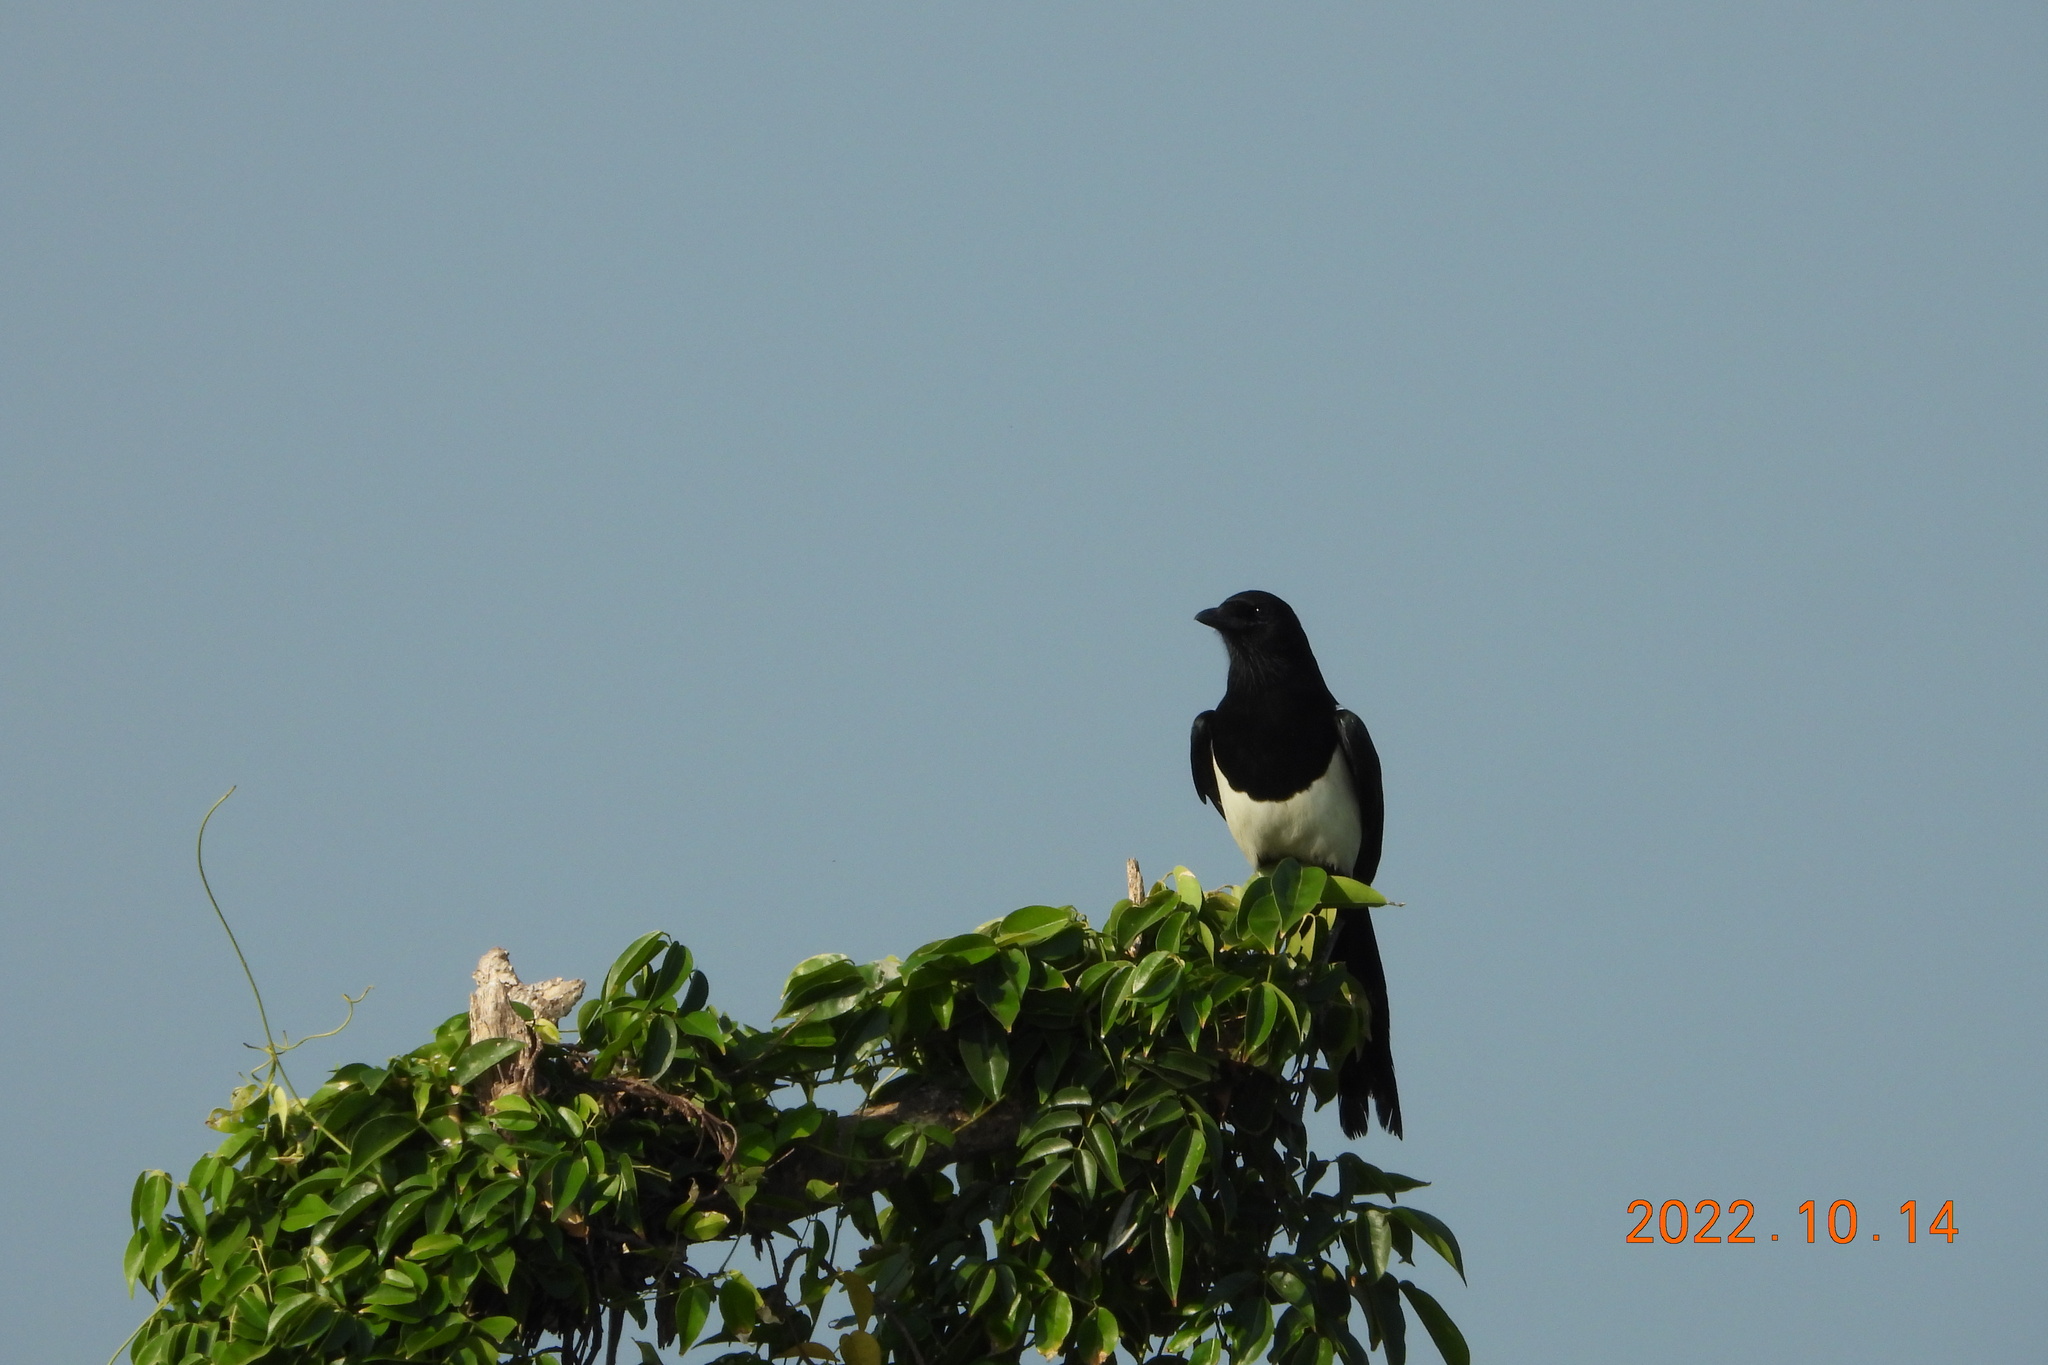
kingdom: Animalia
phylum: Chordata
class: Aves
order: Passeriformes
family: Corvidae
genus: Pica
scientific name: Pica serica
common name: Oriental magpie
